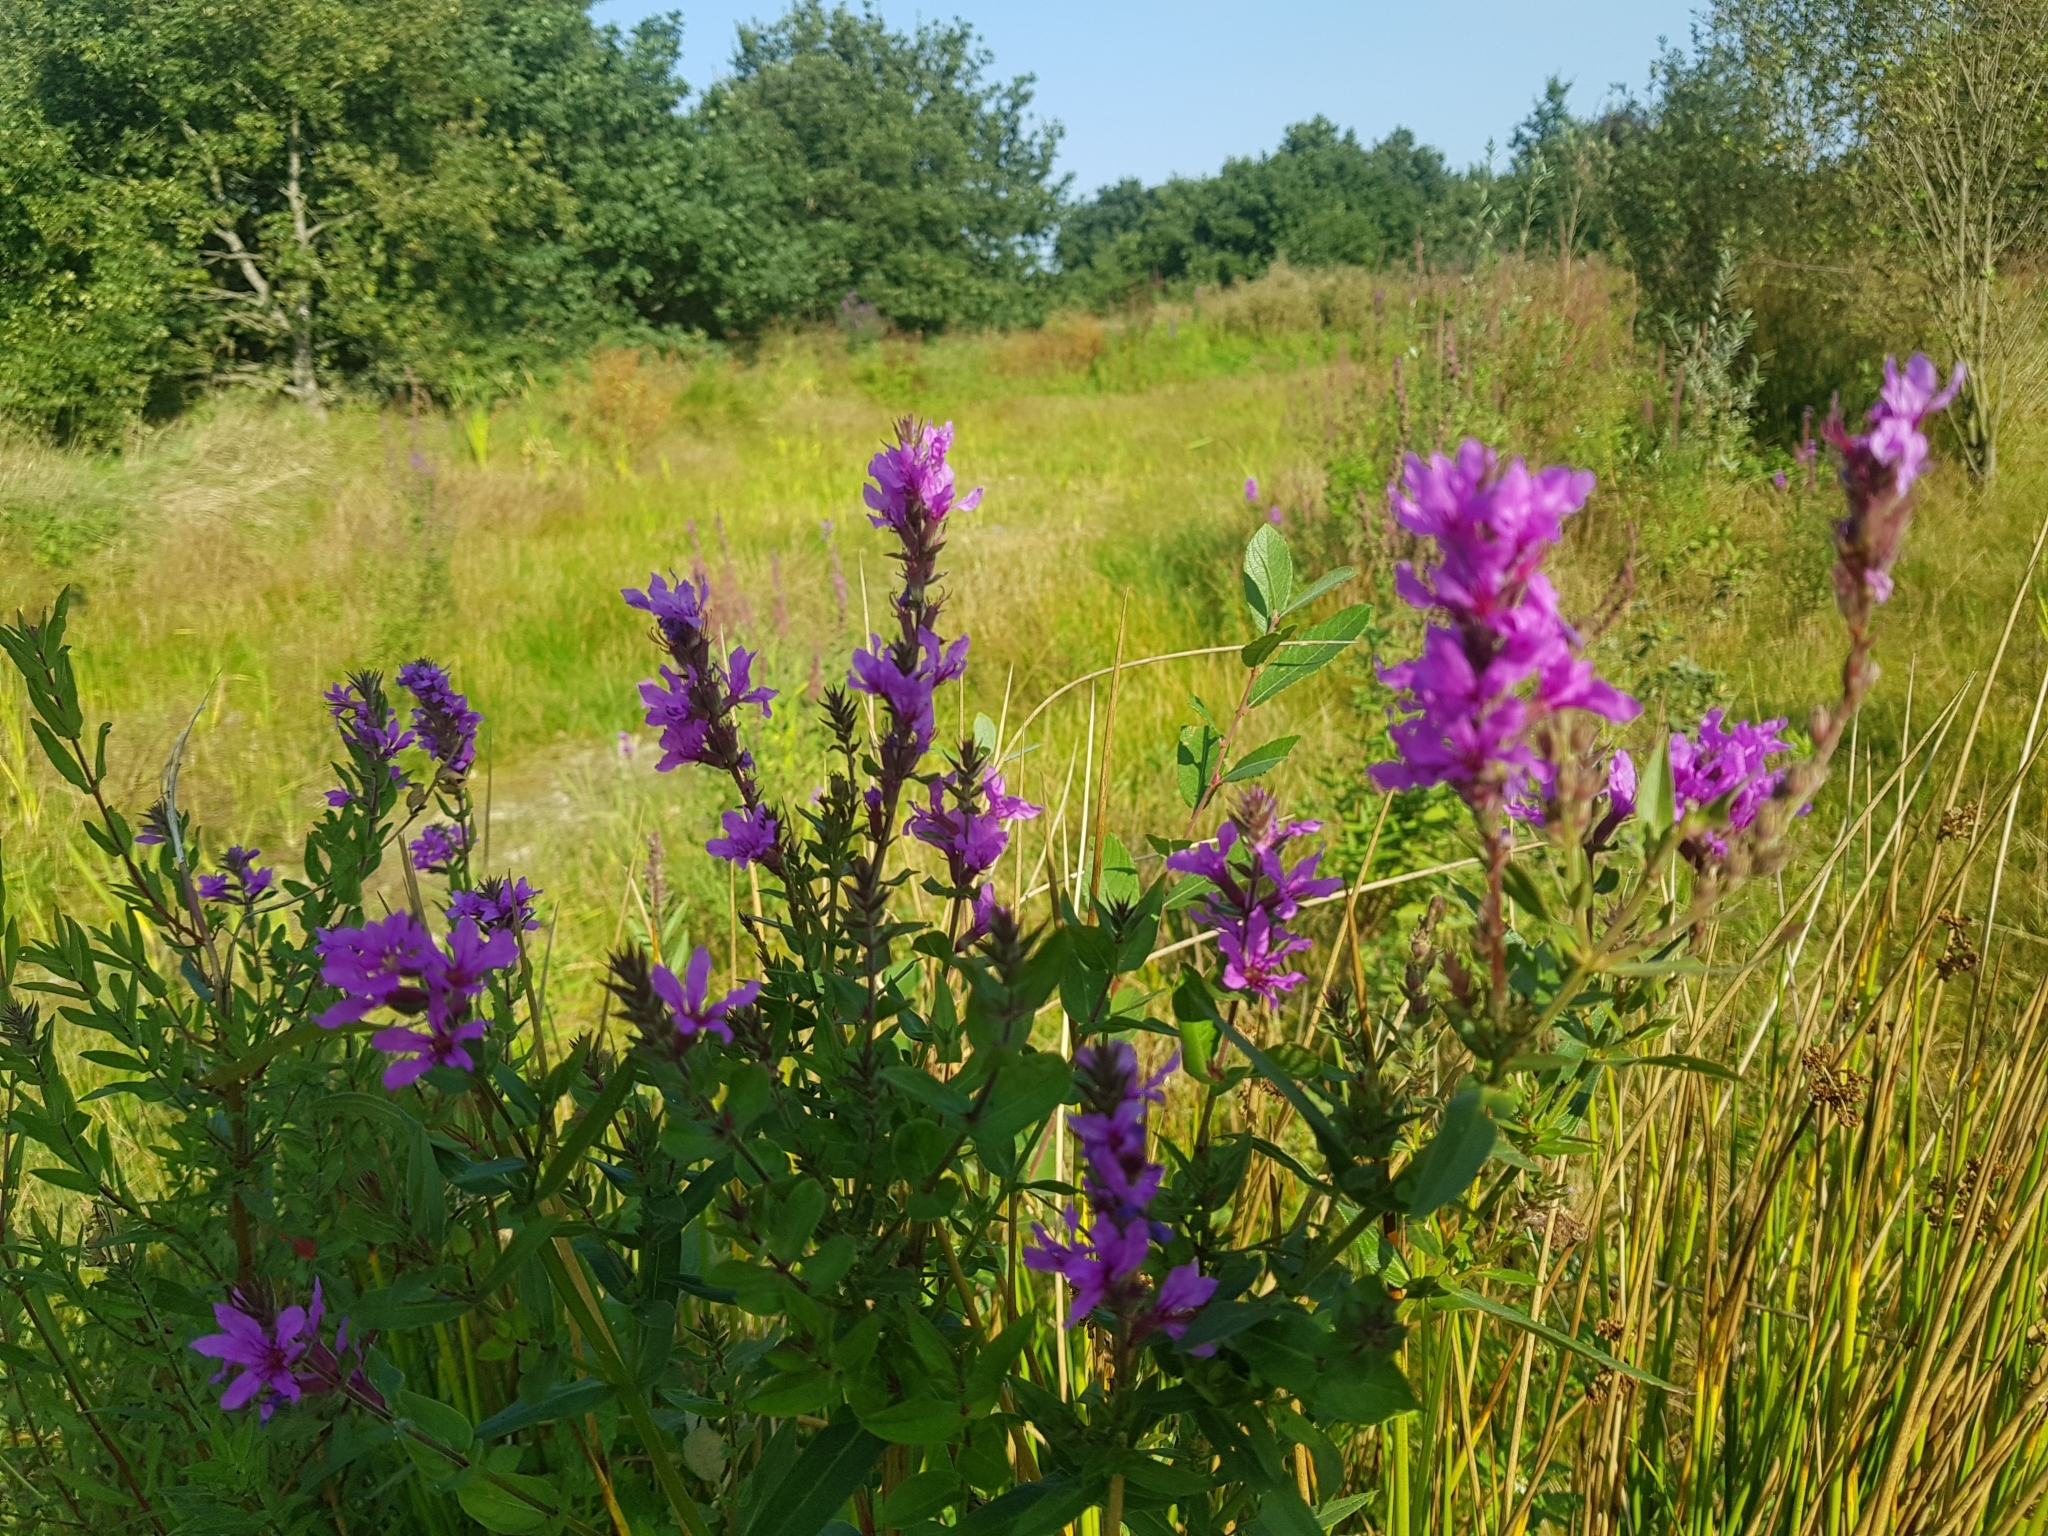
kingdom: Plantae
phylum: Tracheophyta
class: Magnoliopsida
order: Myrtales
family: Lythraceae
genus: Lythrum
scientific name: Lythrum salicaria
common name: Purple loosestrife
